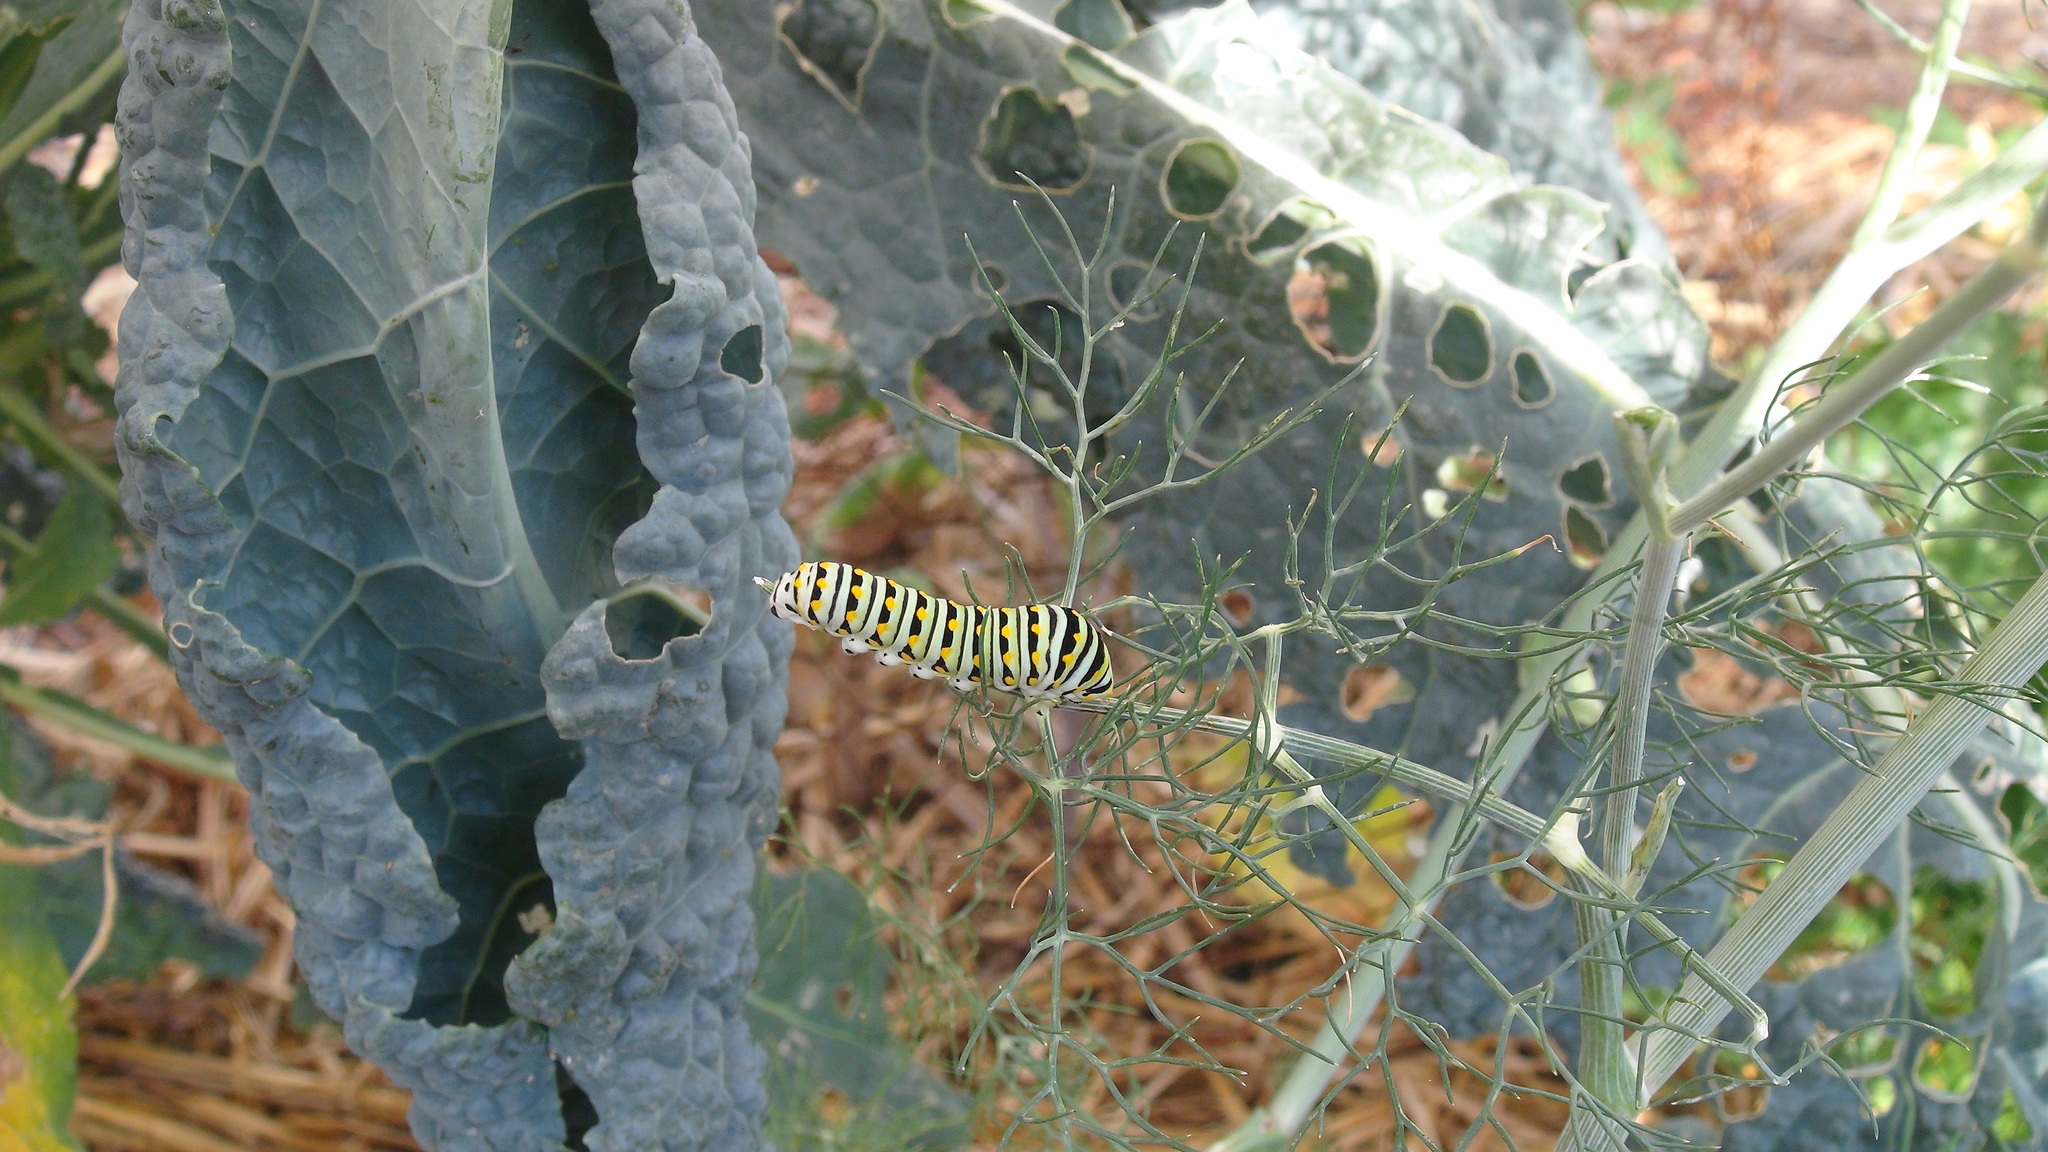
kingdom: Animalia
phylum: Arthropoda
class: Insecta
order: Lepidoptera
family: Papilionidae
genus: Papilio
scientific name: Papilio polyxenes
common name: Black swallowtail
